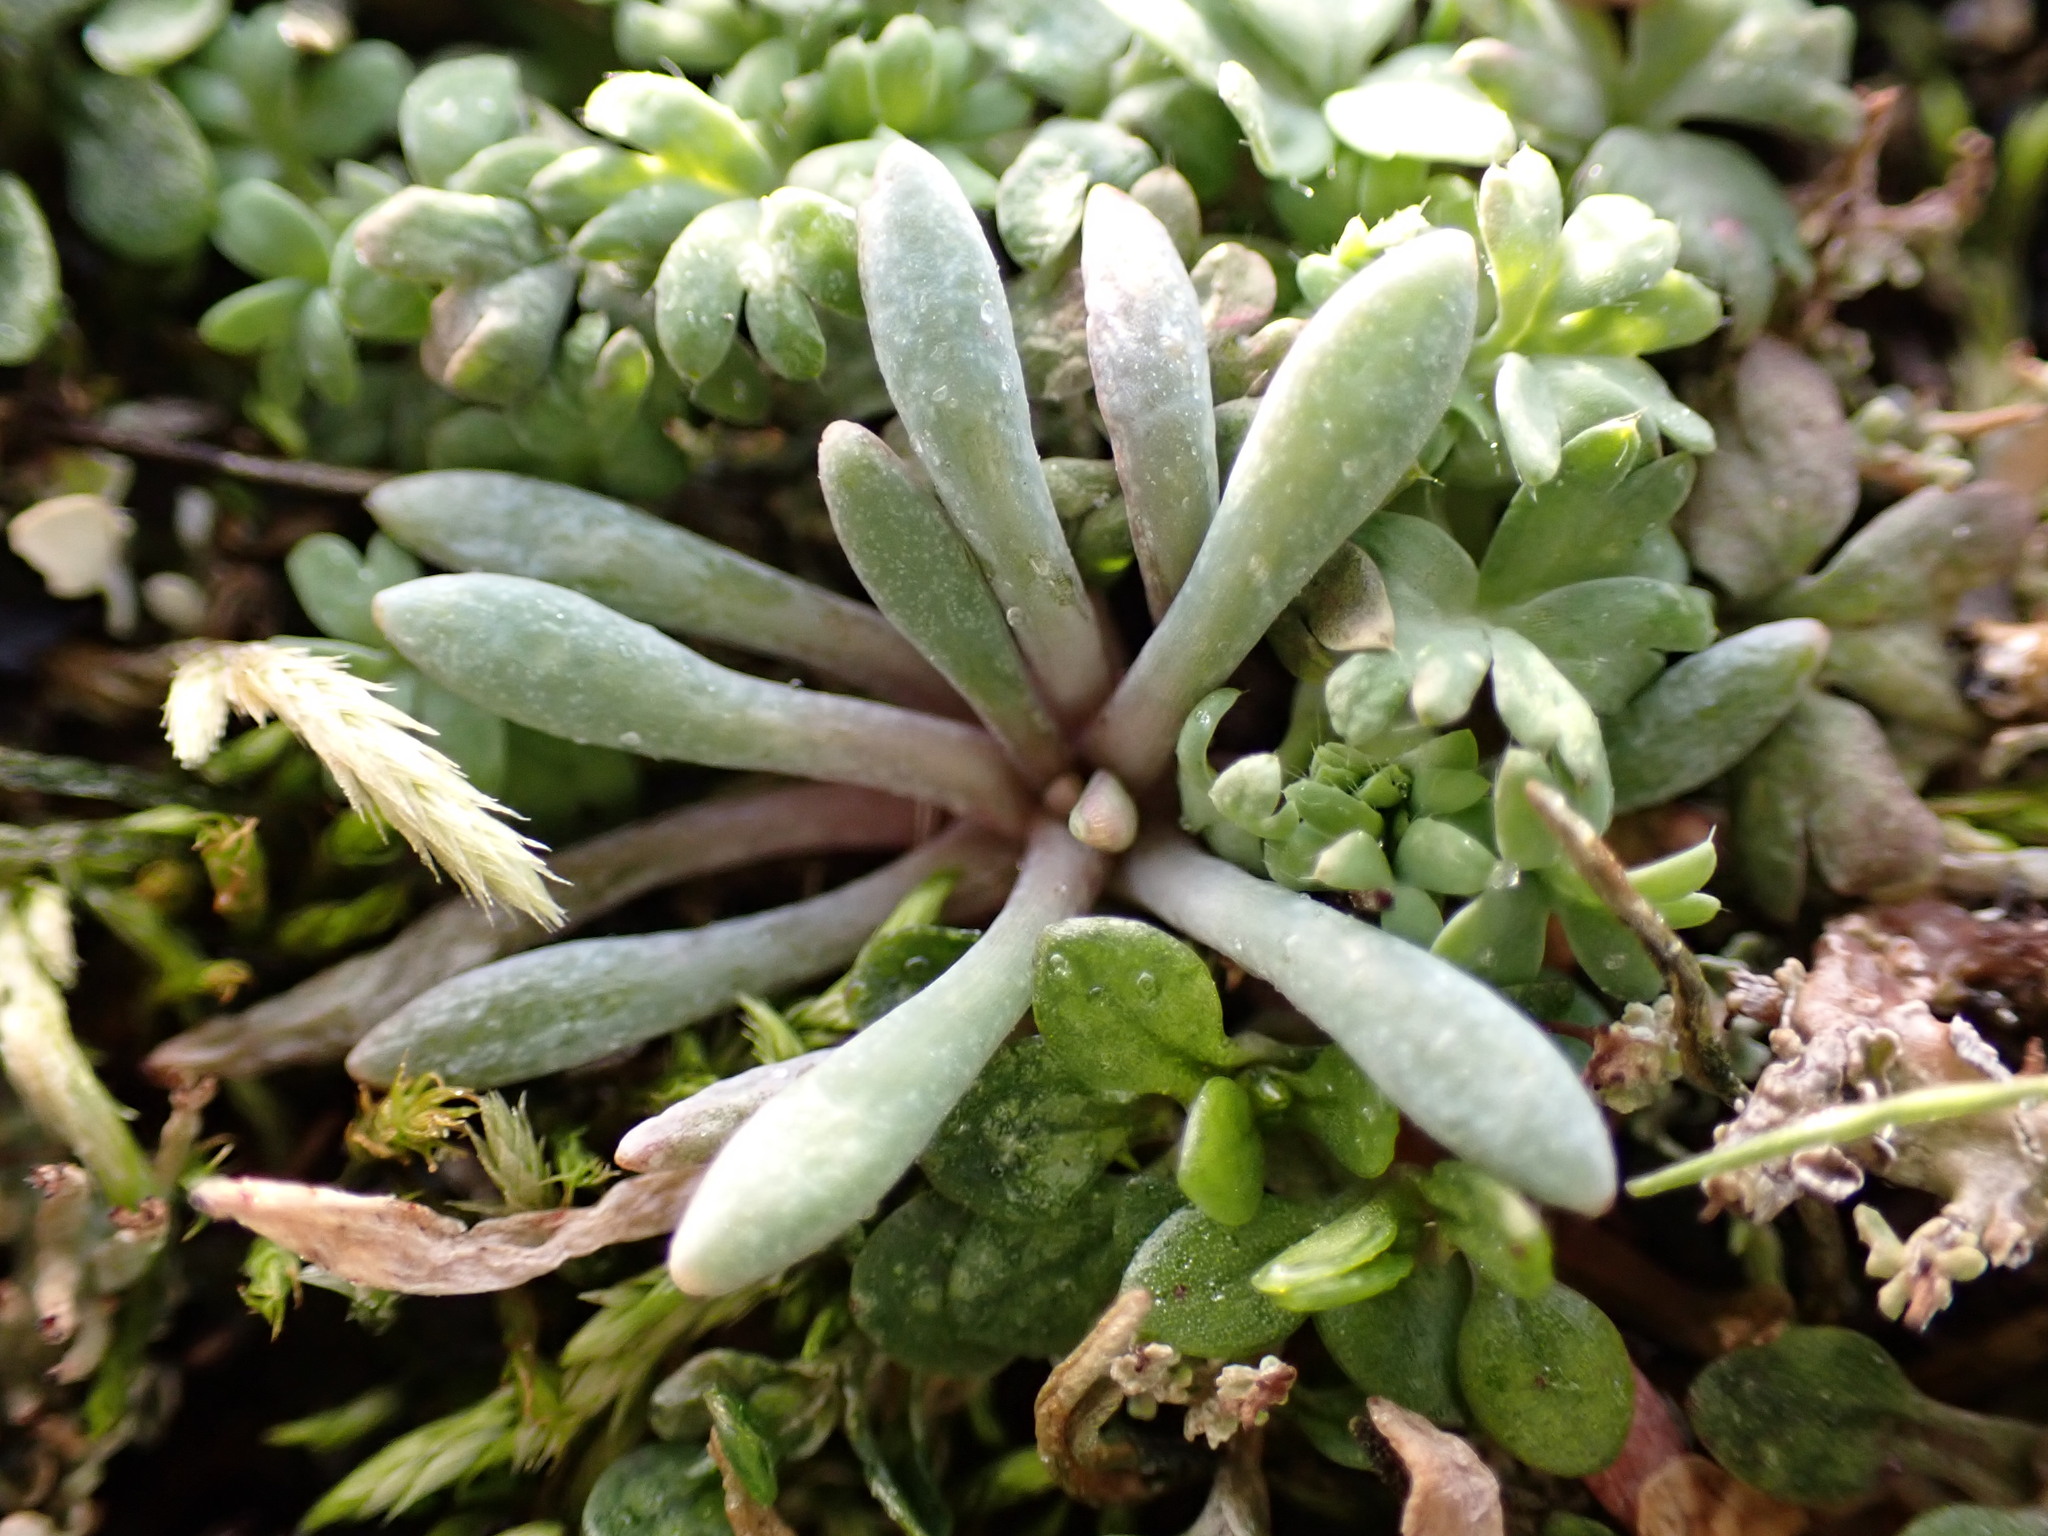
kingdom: Plantae
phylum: Tracheophyta
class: Magnoliopsida
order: Caryophyllales
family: Montiaceae
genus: Claytonia
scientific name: Claytonia exigua
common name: Pale spring beauty
